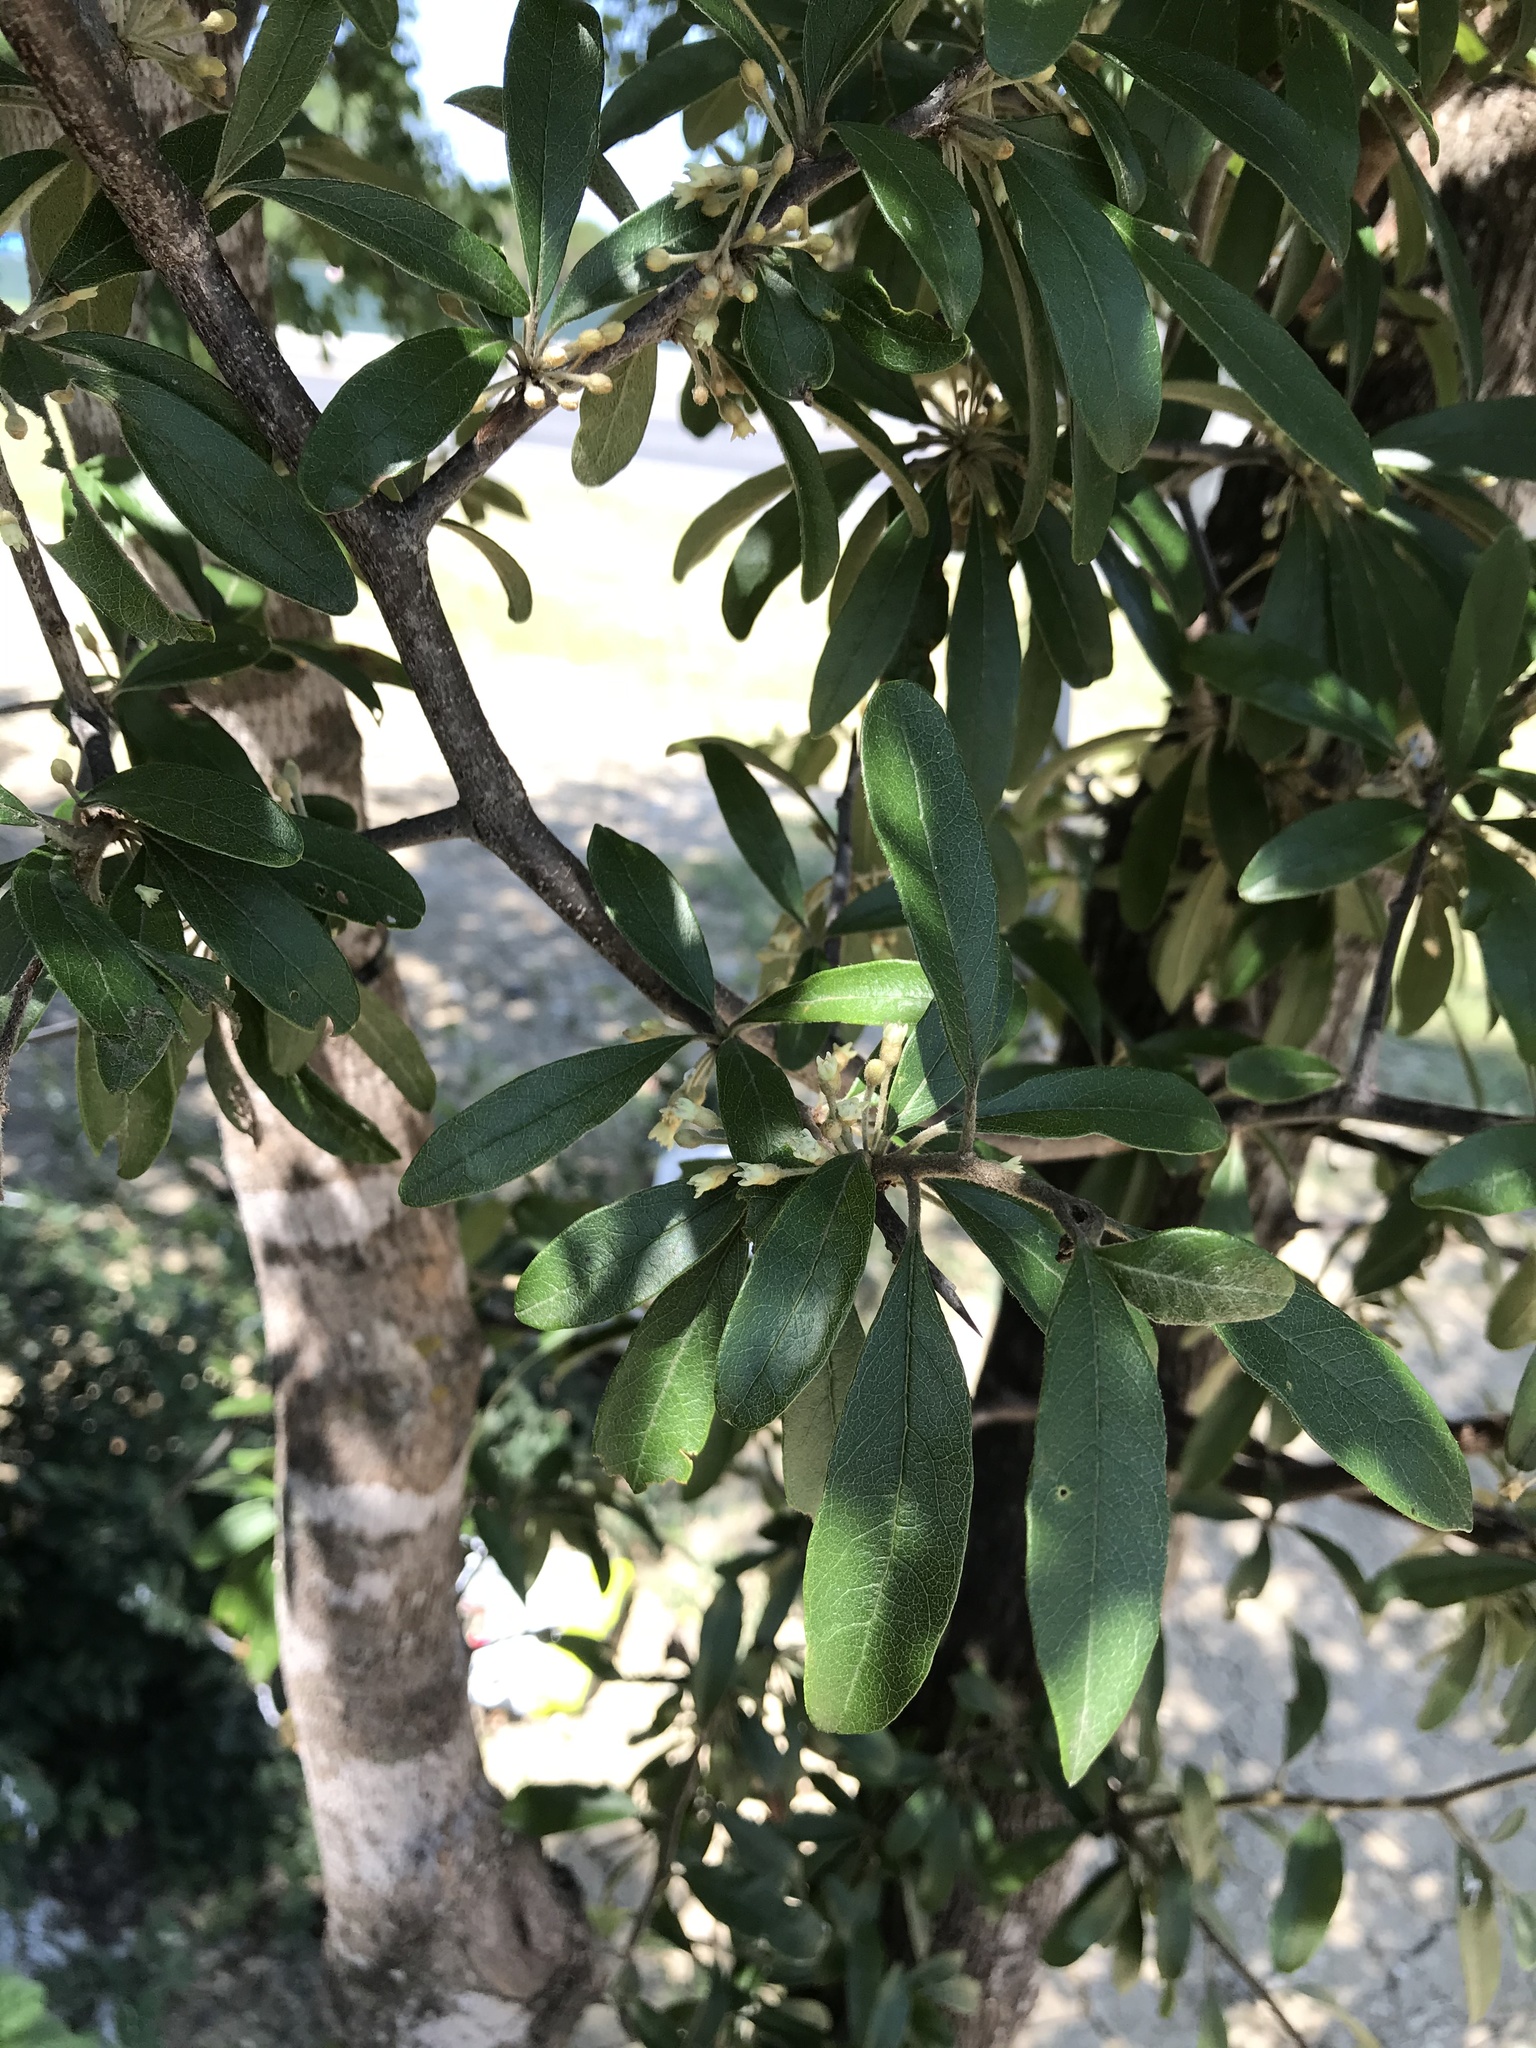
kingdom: Plantae
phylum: Tracheophyta
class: Magnoliopsida
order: Ericales
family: Sapotaceae
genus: Sideroxylon
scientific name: Sideroxylon lanuginosum
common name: Chittamwood
